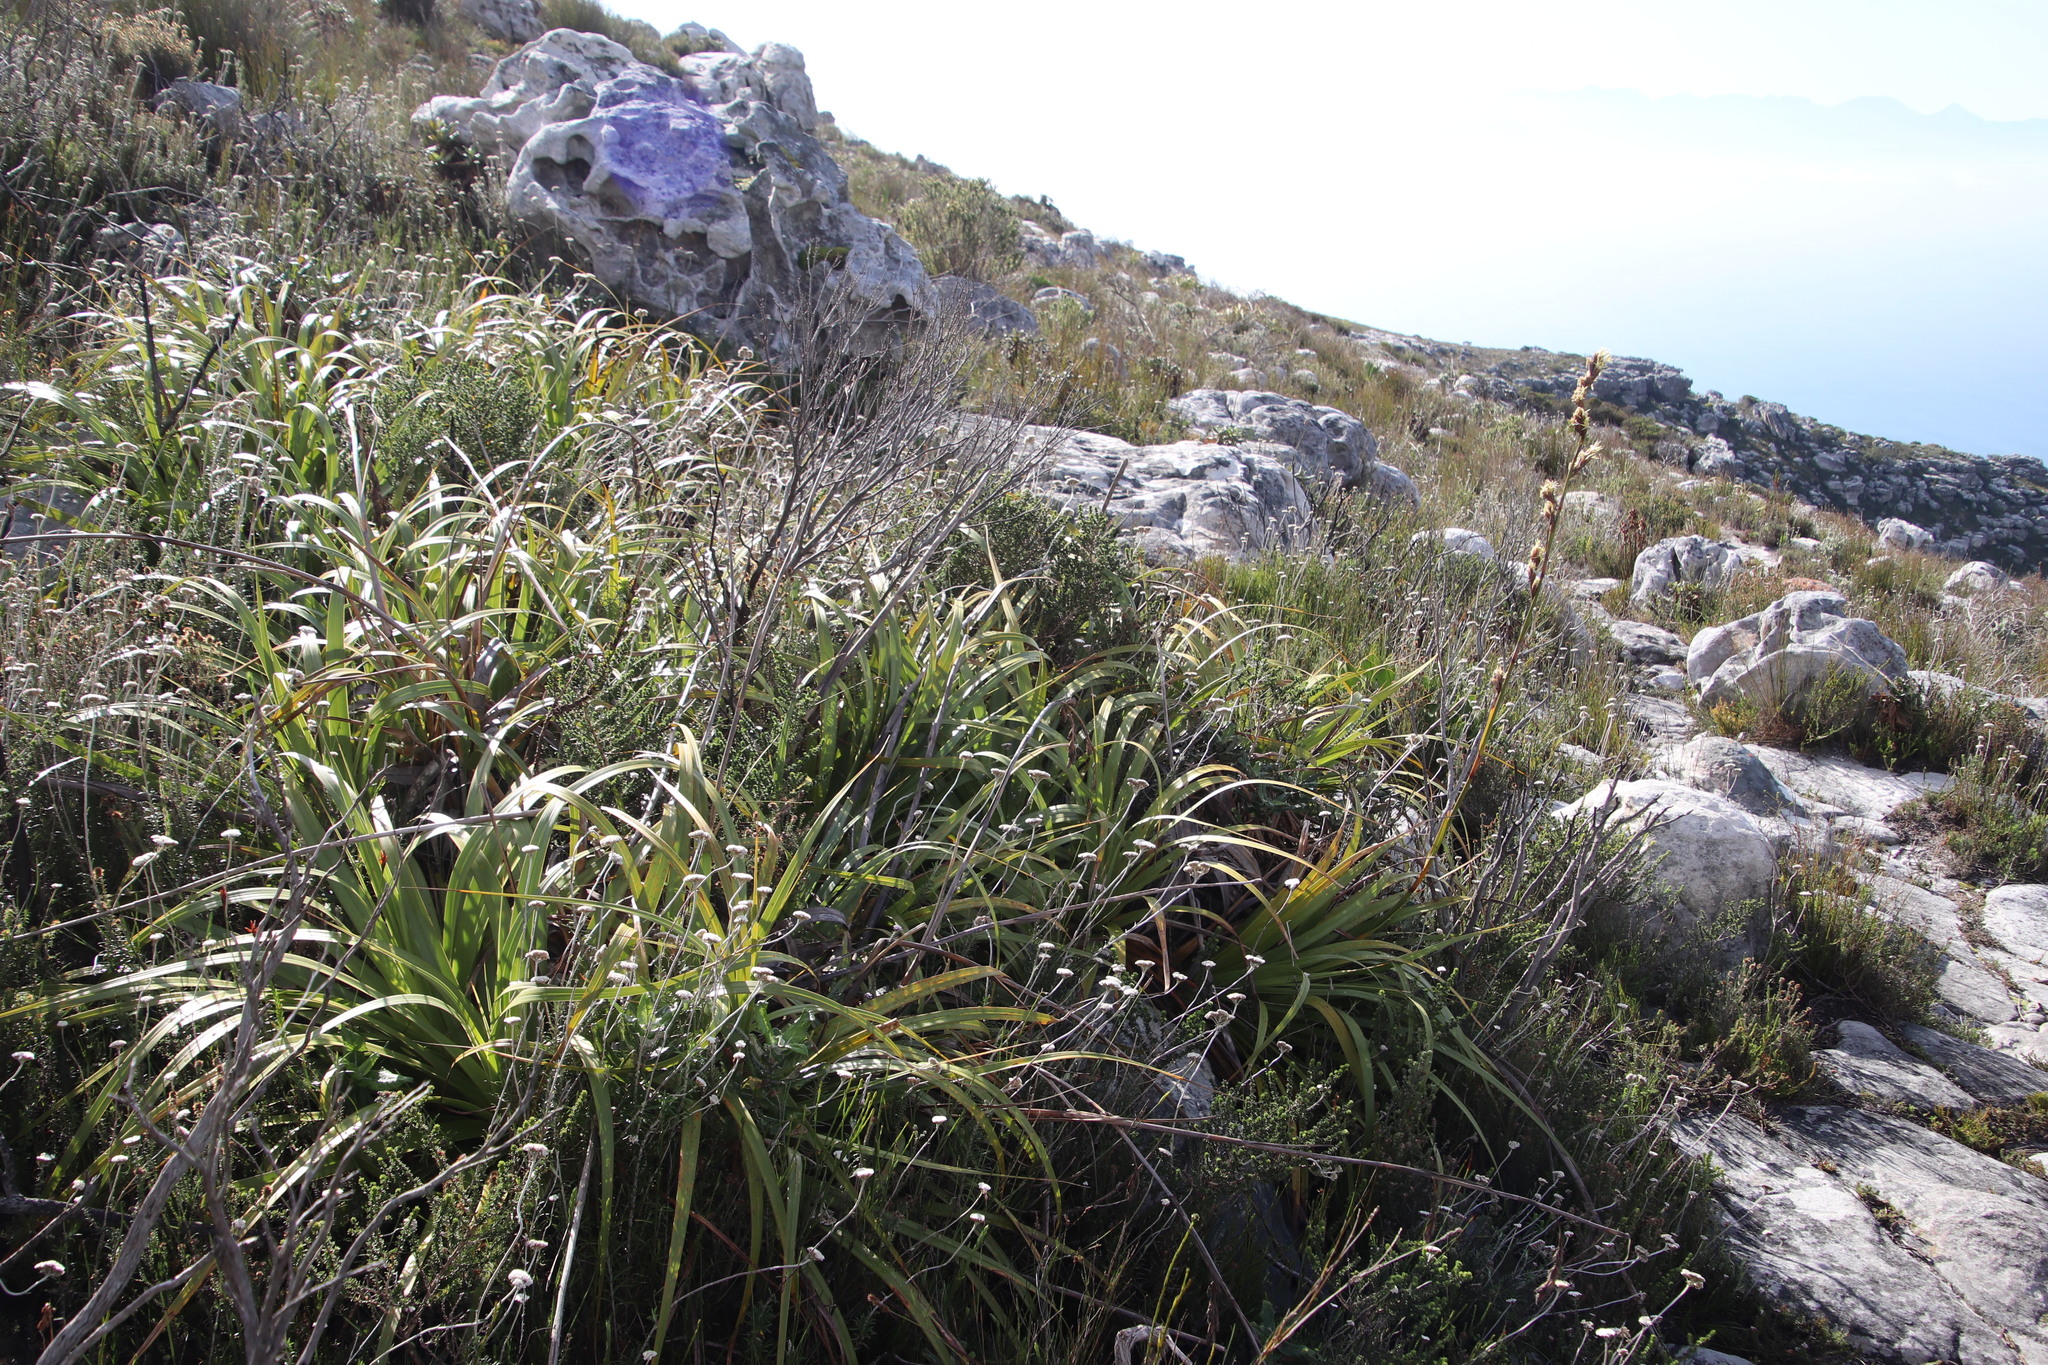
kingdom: Plantae
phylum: Tracheophyta
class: Liliopsida
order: Poales
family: Cyperaceae
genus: Tetraria
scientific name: Tetraria thermalis
